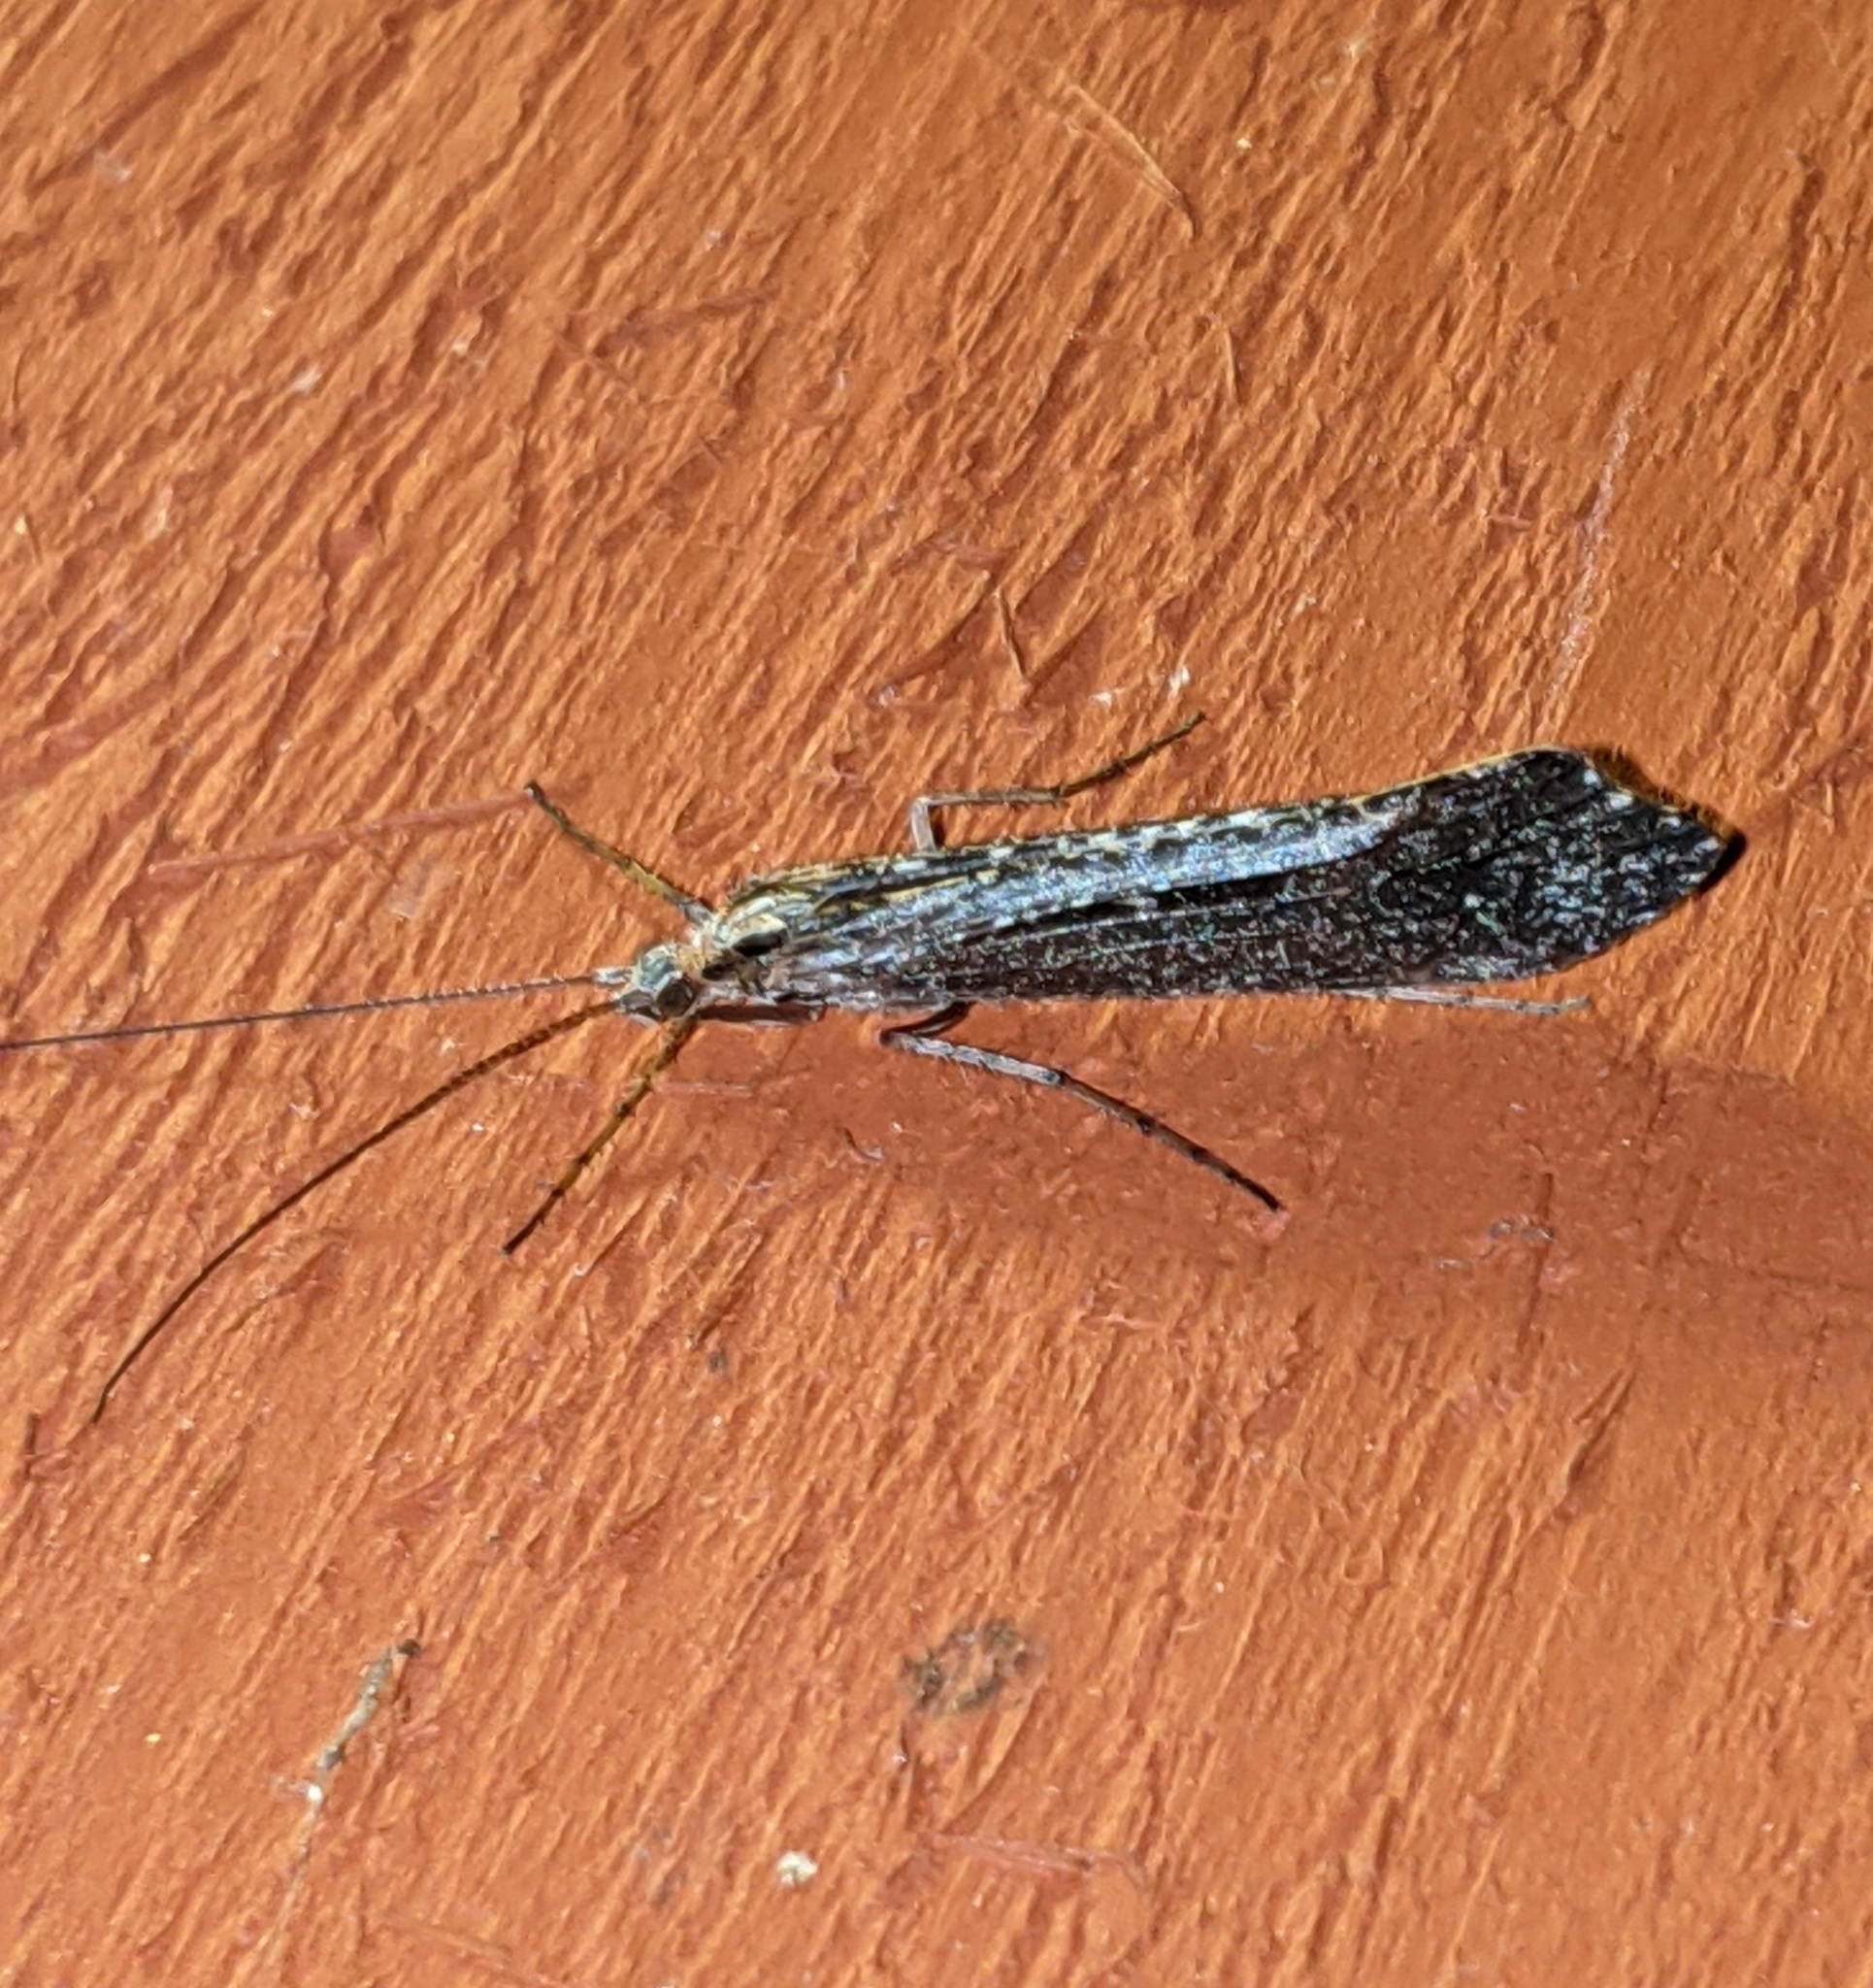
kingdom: Animalia
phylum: Arthropoda
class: Insecta
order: Trichoptera
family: Limnephilidae
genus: Glyphopsyche
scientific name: Glyphopsyche irrorata
